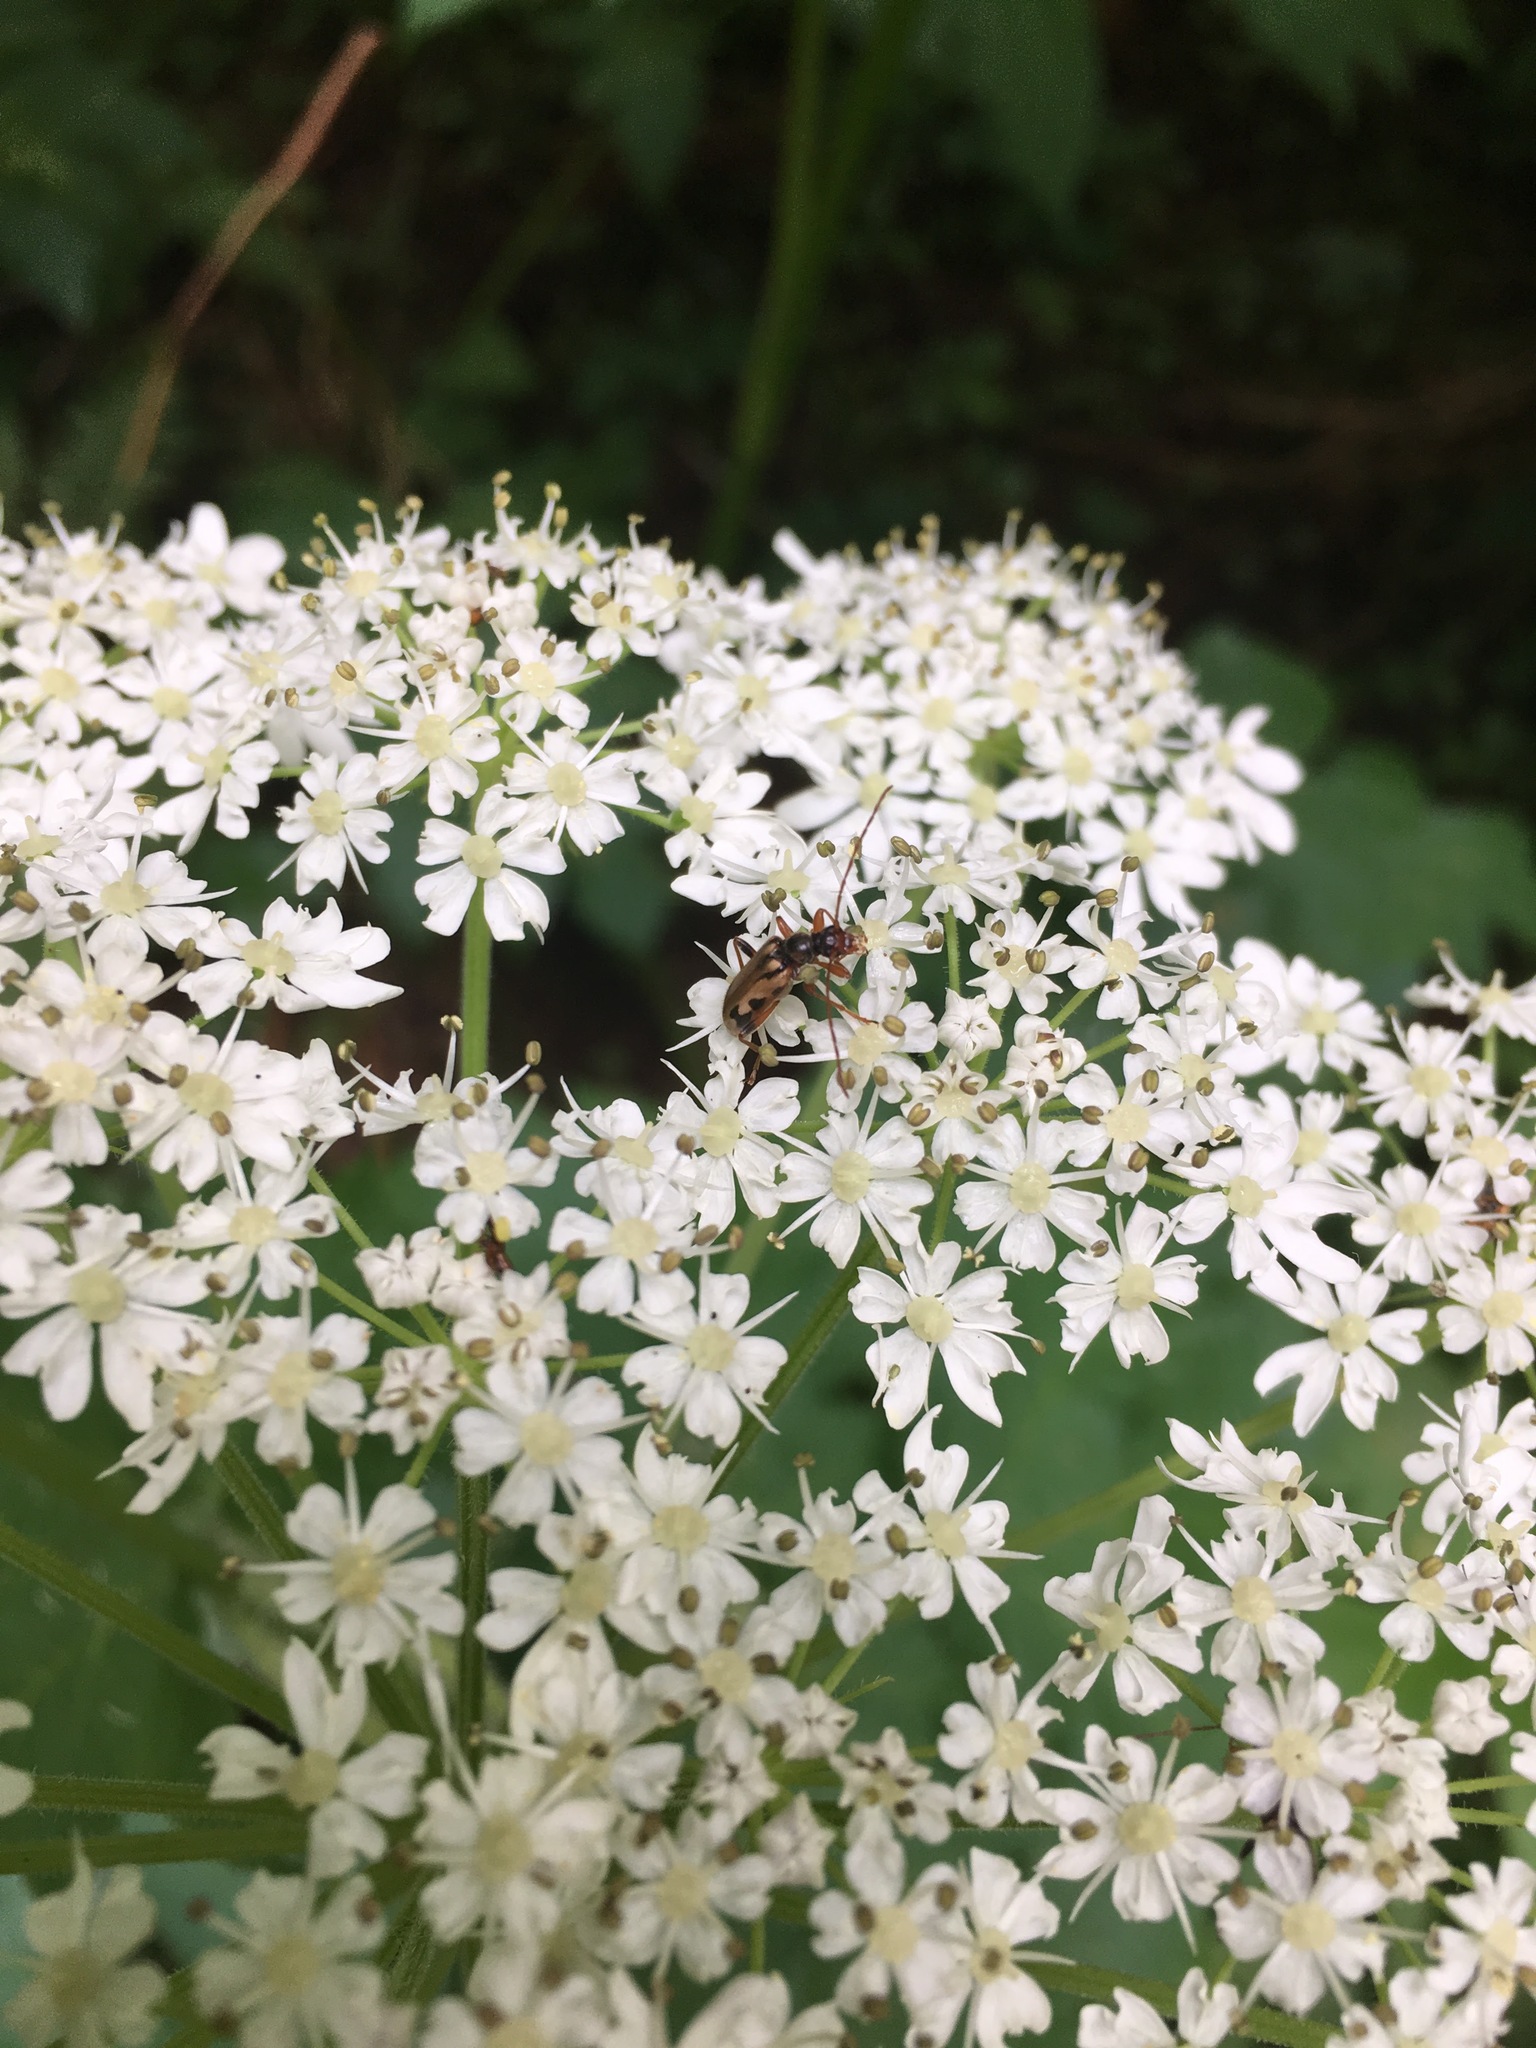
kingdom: Animalia
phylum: Arthropoda
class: Insecta
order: Coleoptera
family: Cerambycidae
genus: Pidonia
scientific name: Pidonia scripta
